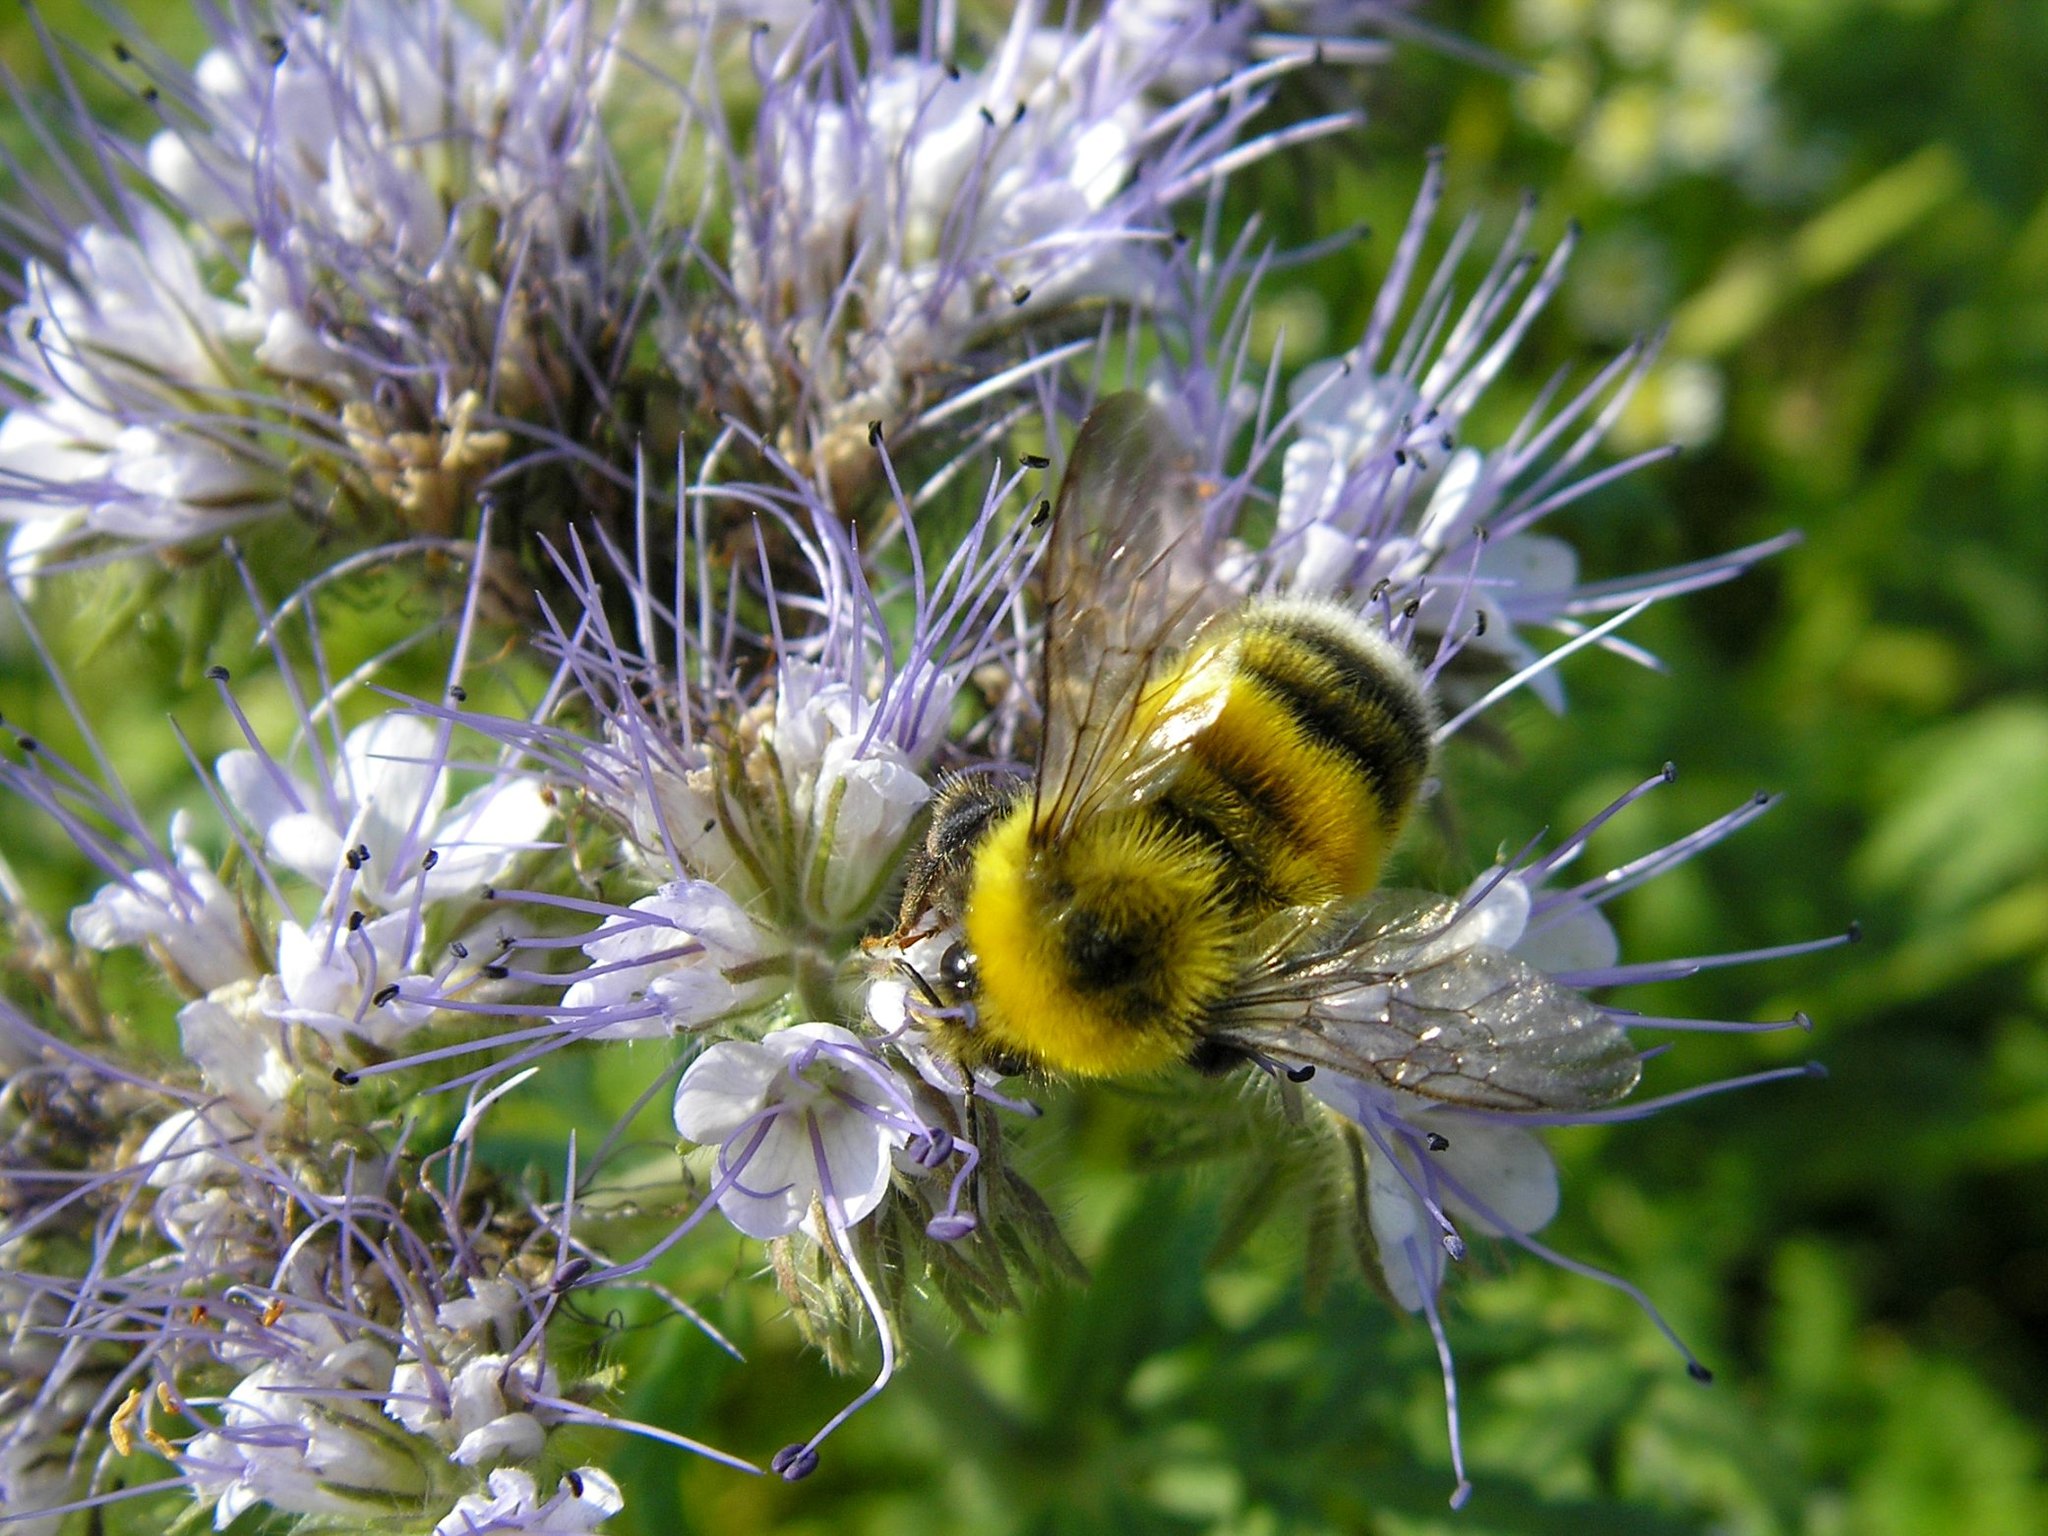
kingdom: Animalia
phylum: Arthropoda
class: Insecta
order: Hymenoptera
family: Apidae
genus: Bombus
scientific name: Bombus lucorum
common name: White-tailed bumblebee
